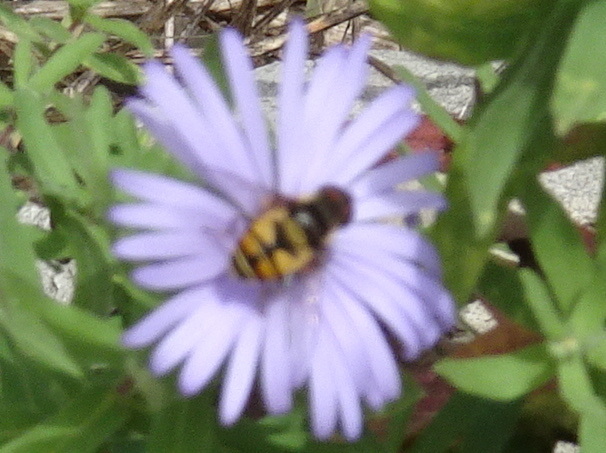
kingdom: Animalia
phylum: Arthropoda
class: Insecta
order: Diptera
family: Syrphidae
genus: Eristalis
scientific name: Eristalis transversa
